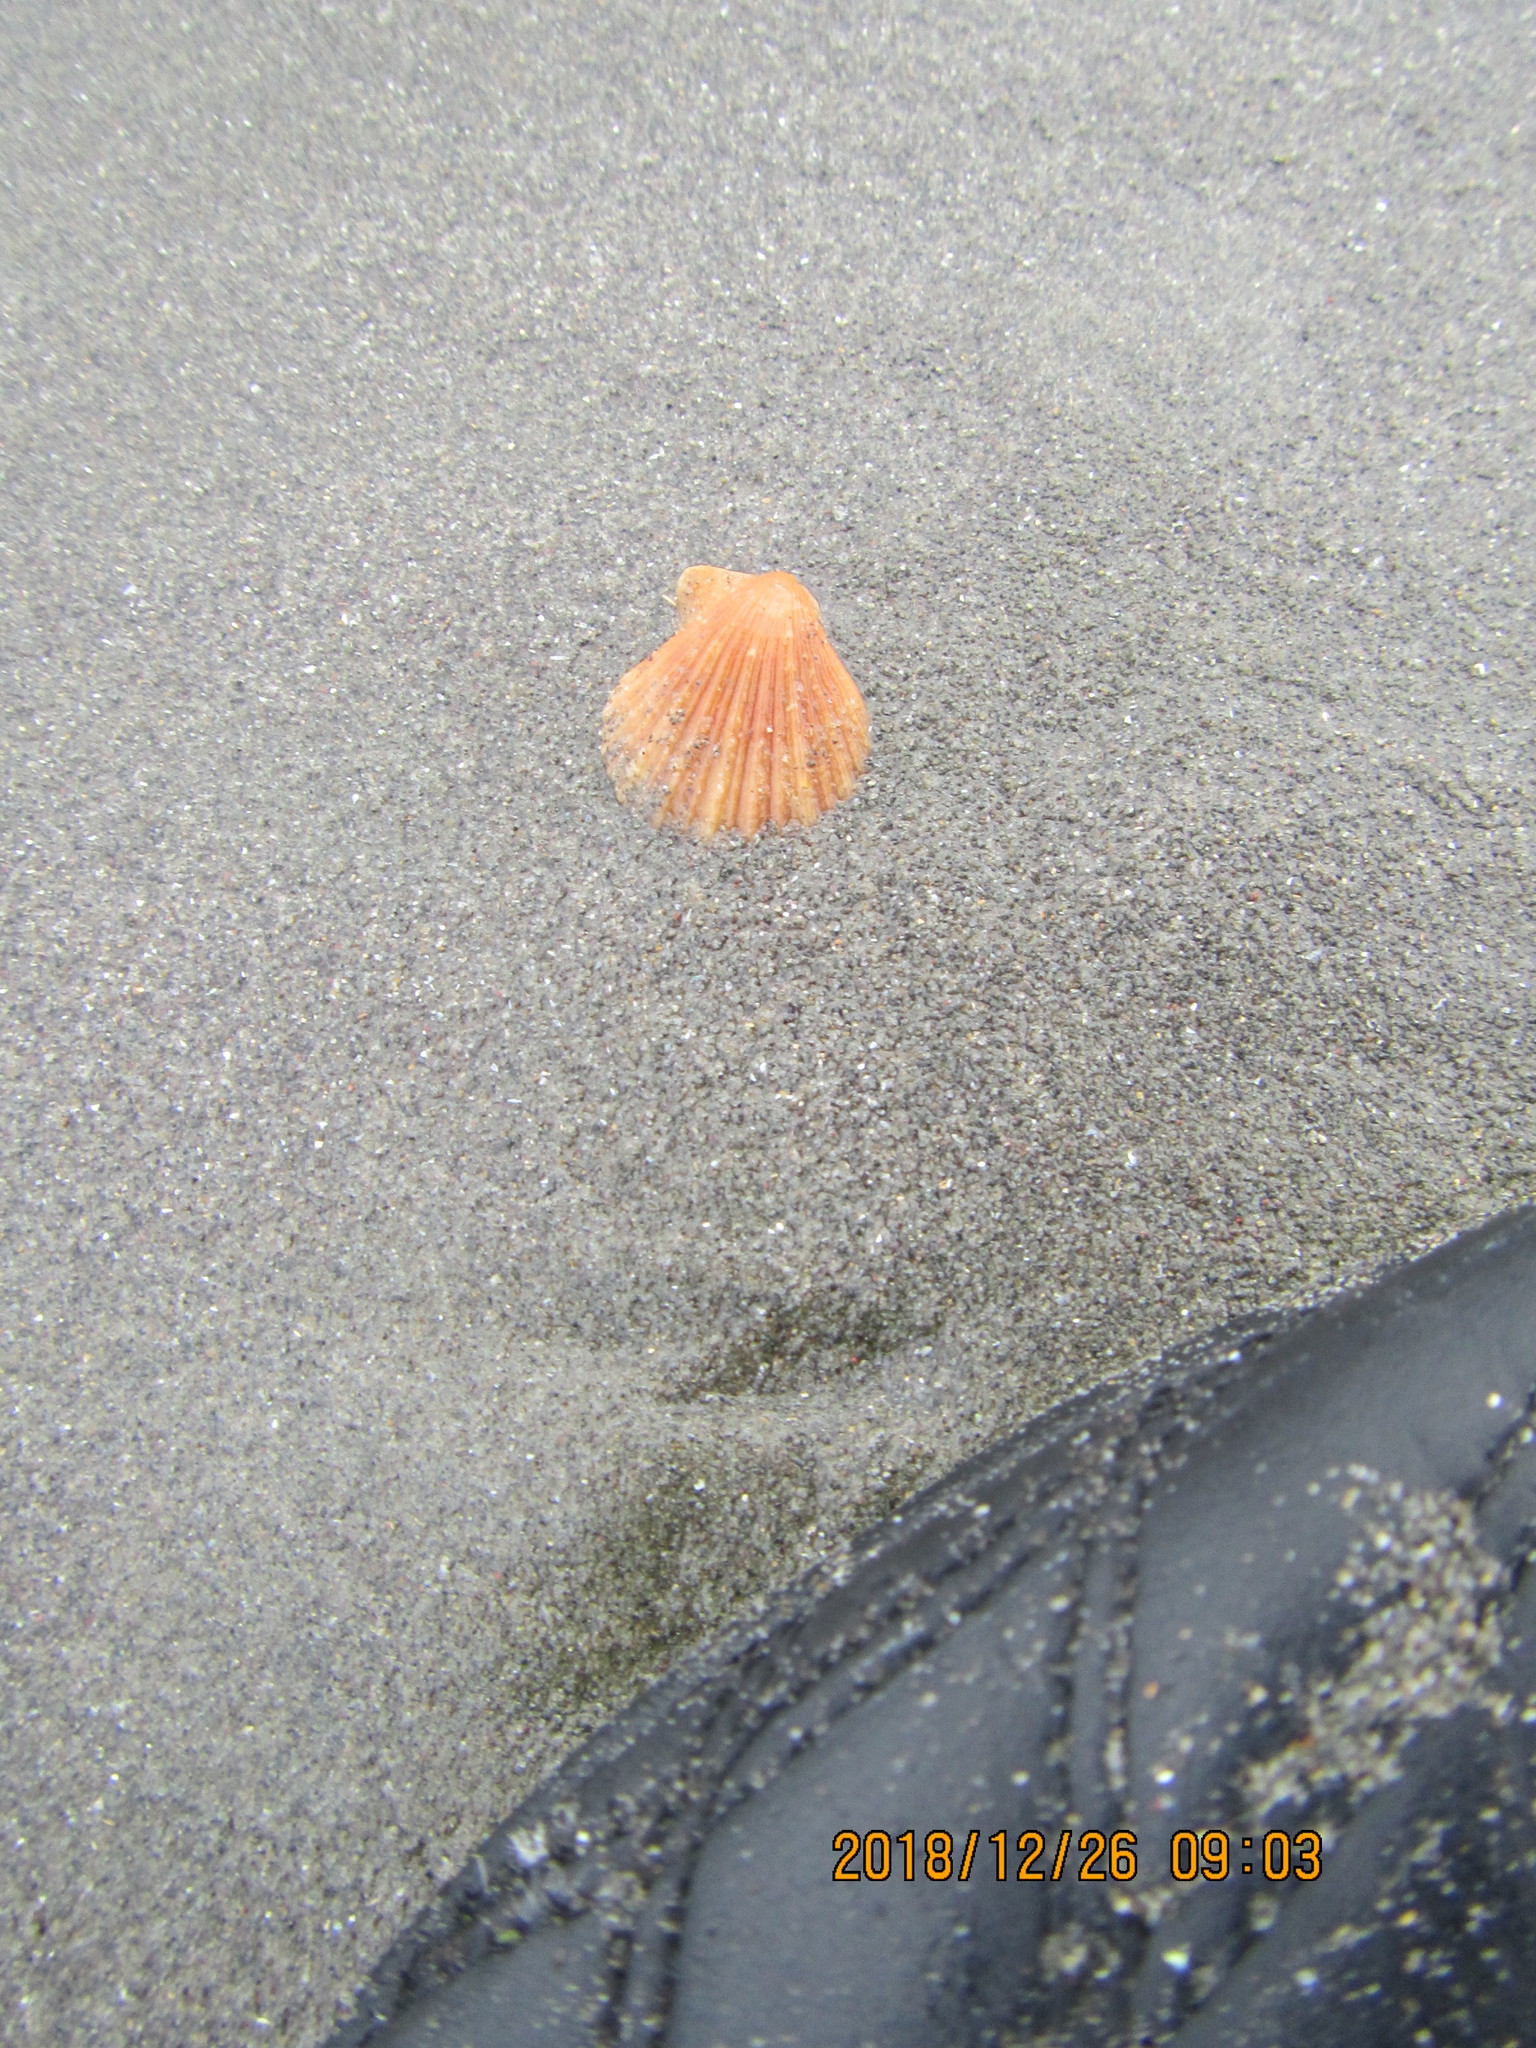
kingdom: Animalia
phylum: Mollusca
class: Bivalvia
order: Pectinida
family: Pectinidae
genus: Talochlamys
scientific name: Talochlamys zelandiae
